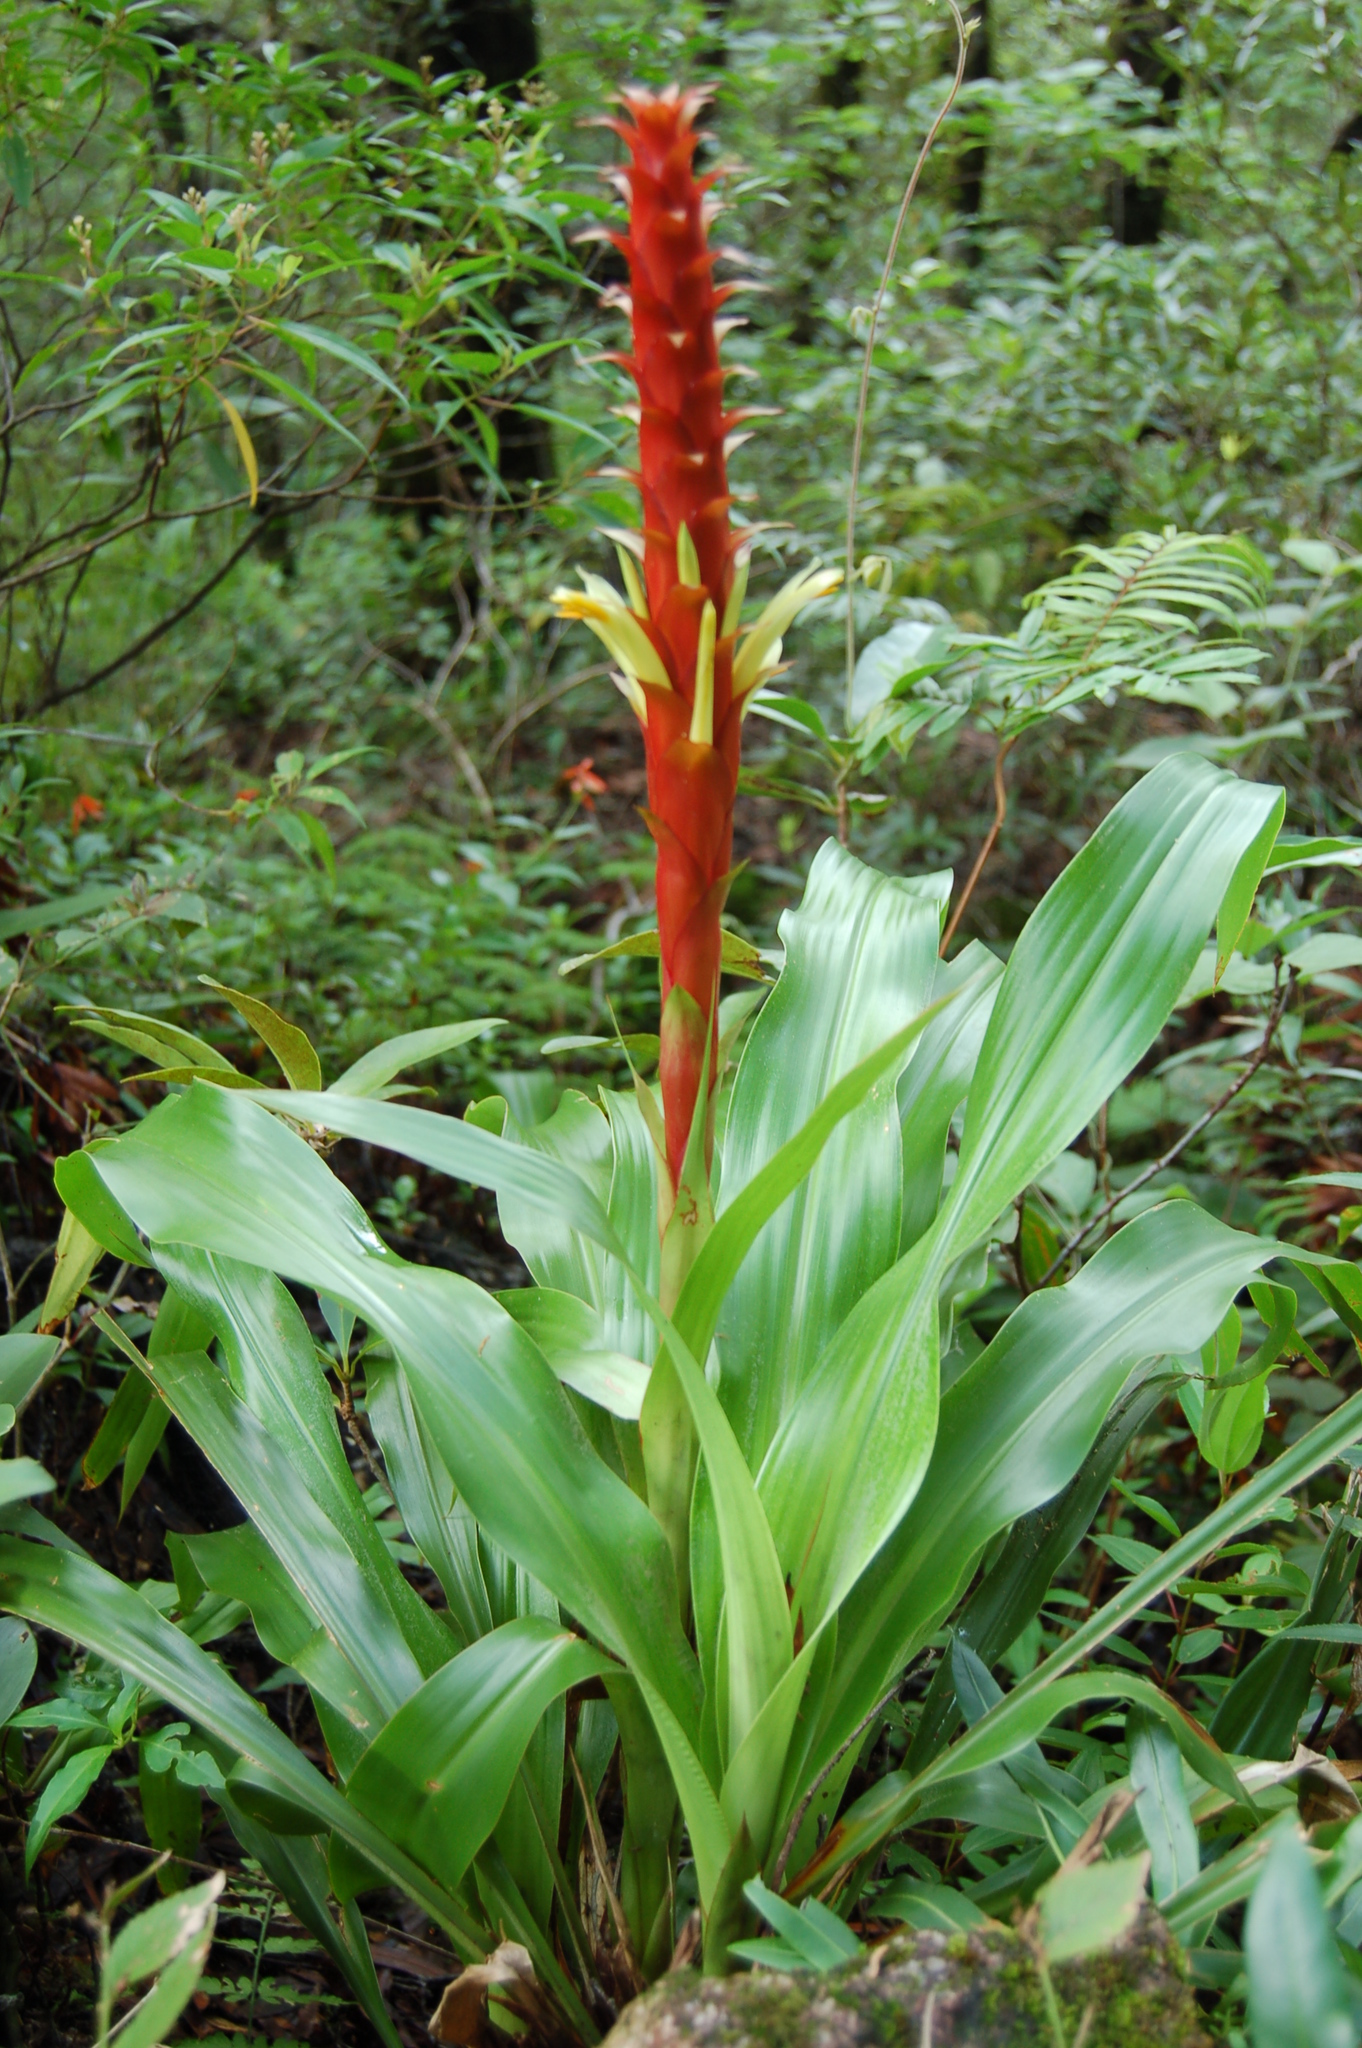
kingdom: Plantae
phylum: Tracheophyta
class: Liliopsida
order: Poales
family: Bromeliaceae
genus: Pitcairnia
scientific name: Pitcairnia imbricata
